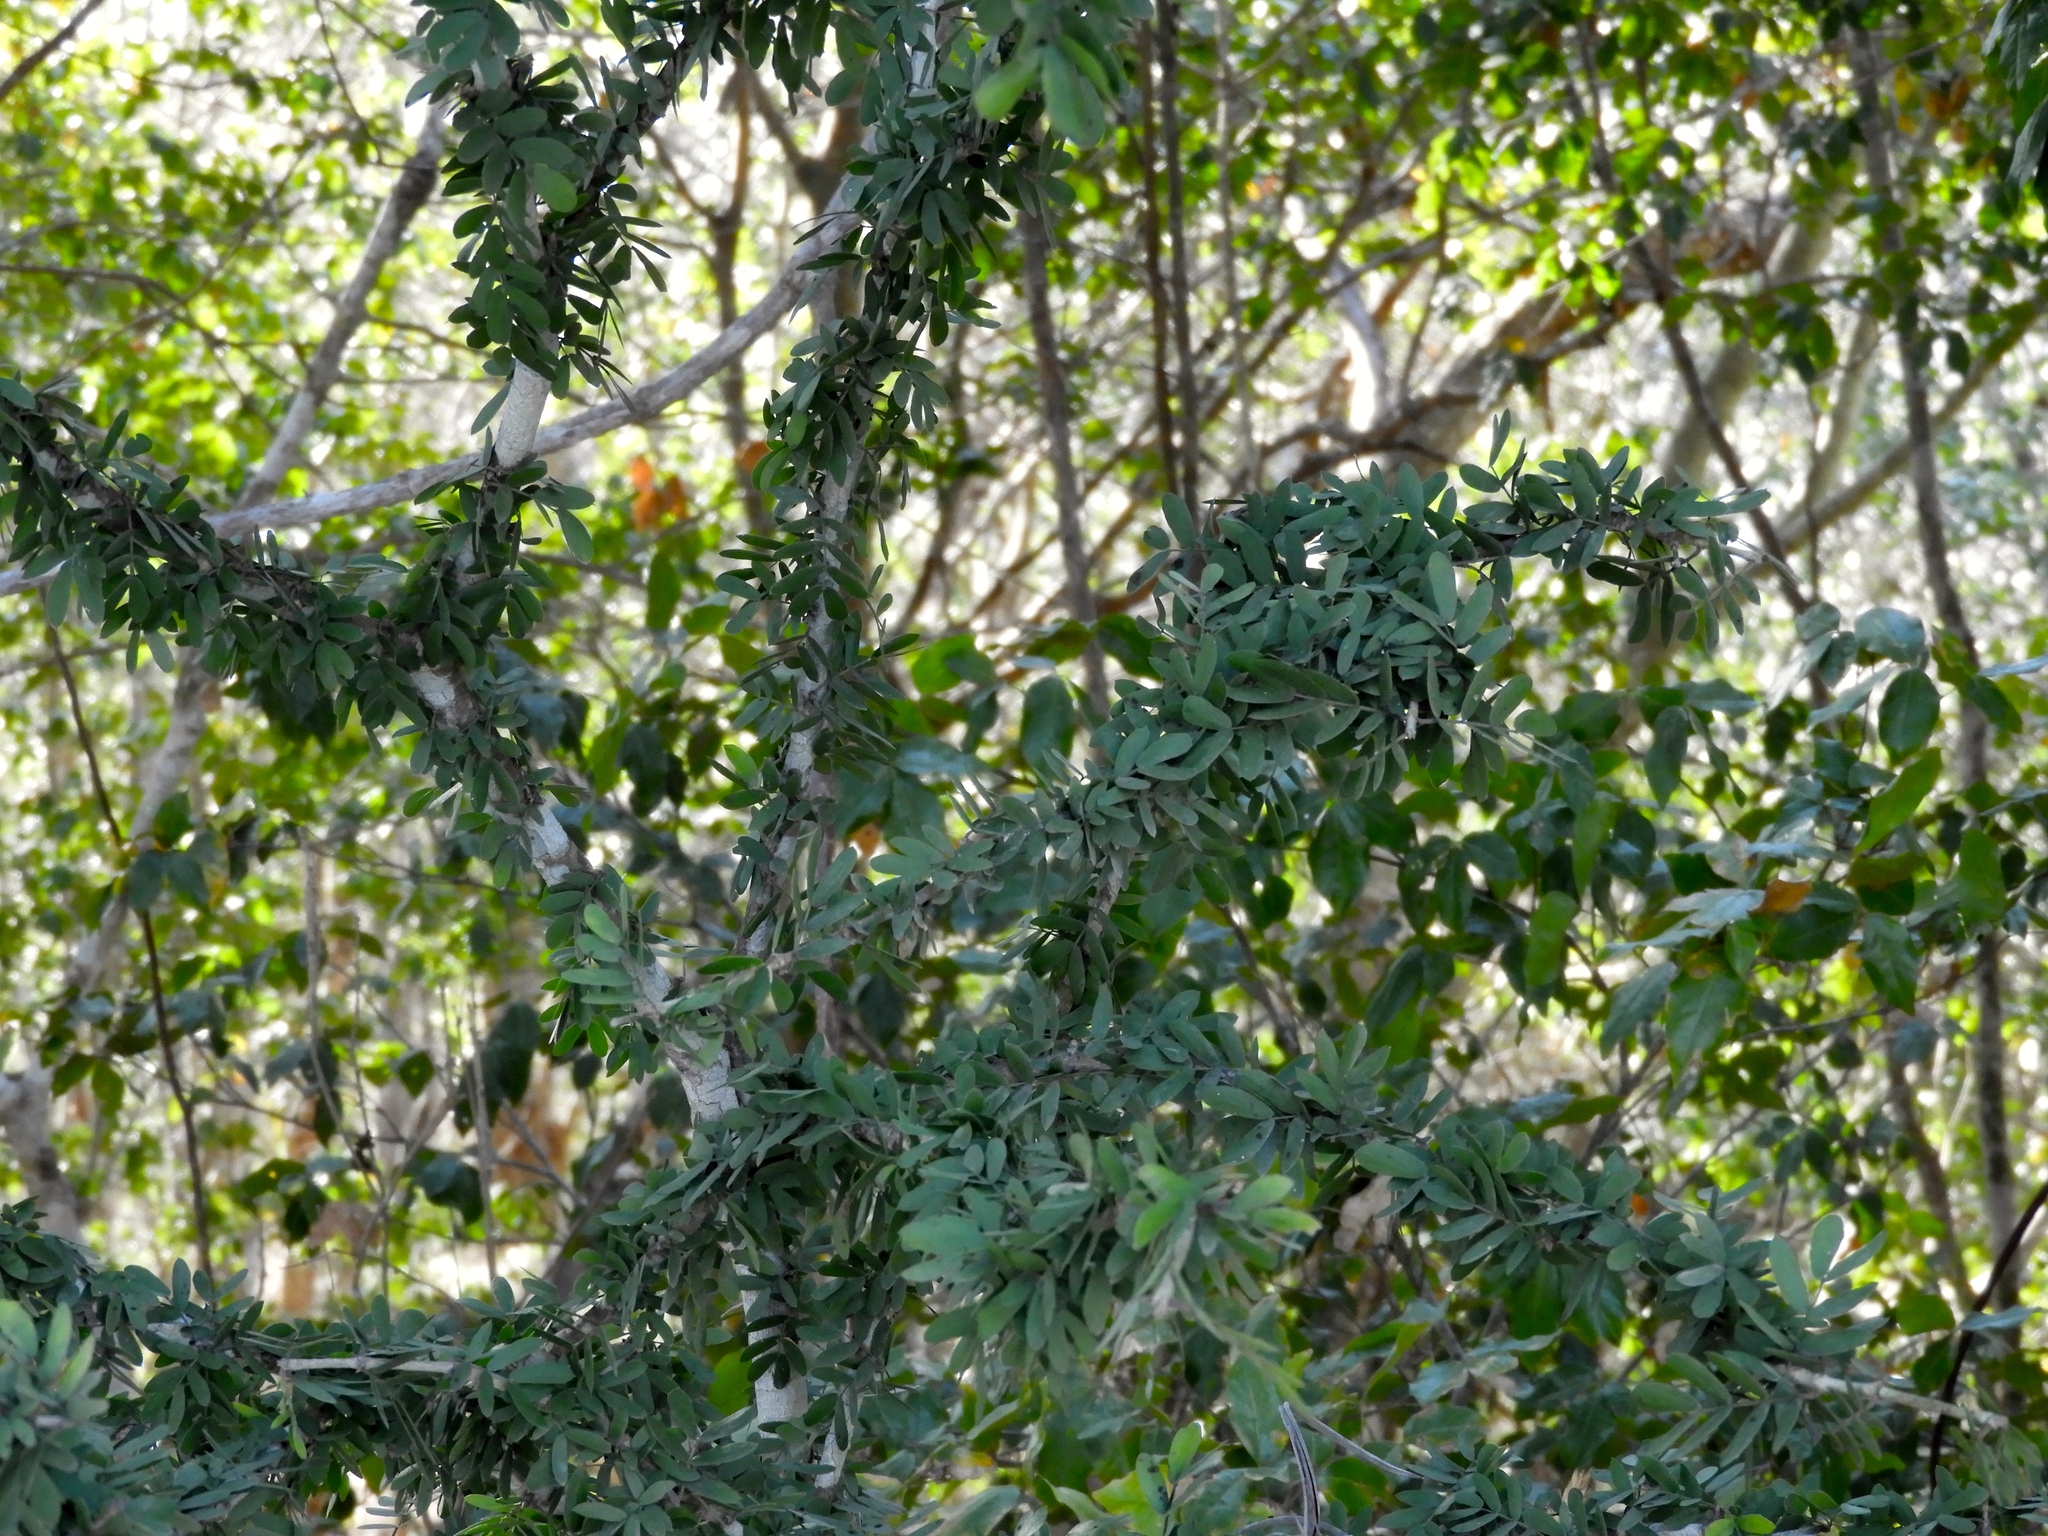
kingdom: Plantae
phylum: Tracheophyta
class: Magnoliopsida
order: Zygophyllales
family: Zygophyllaceae
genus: Guaiacum
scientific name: Guaiacum coulteri
